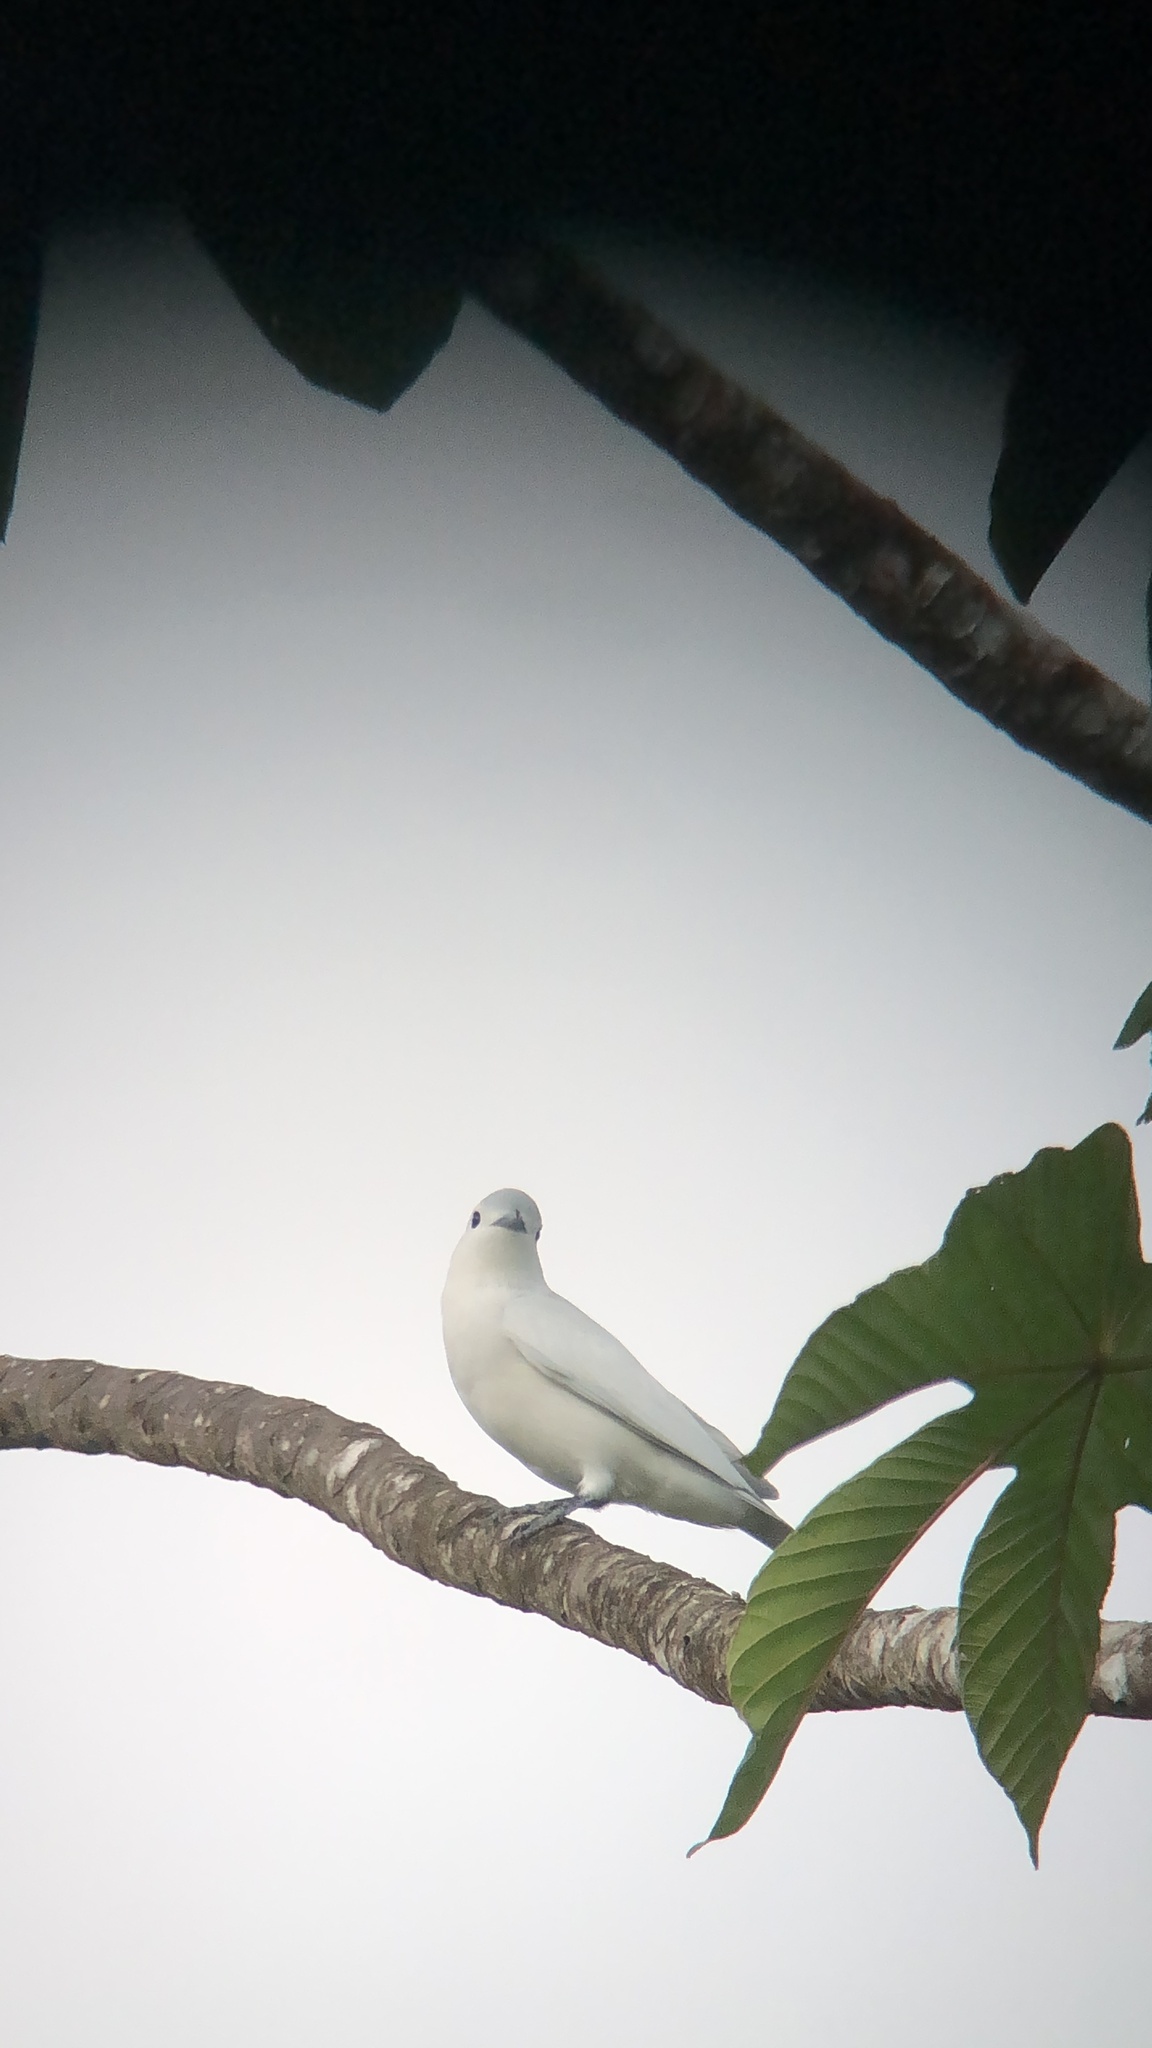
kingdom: Animalia
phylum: Chordata
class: Aves
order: Passeriformes
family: Cotingidae
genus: Carpodectes
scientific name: Carpodectes nitidus
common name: Snowy cotinga
